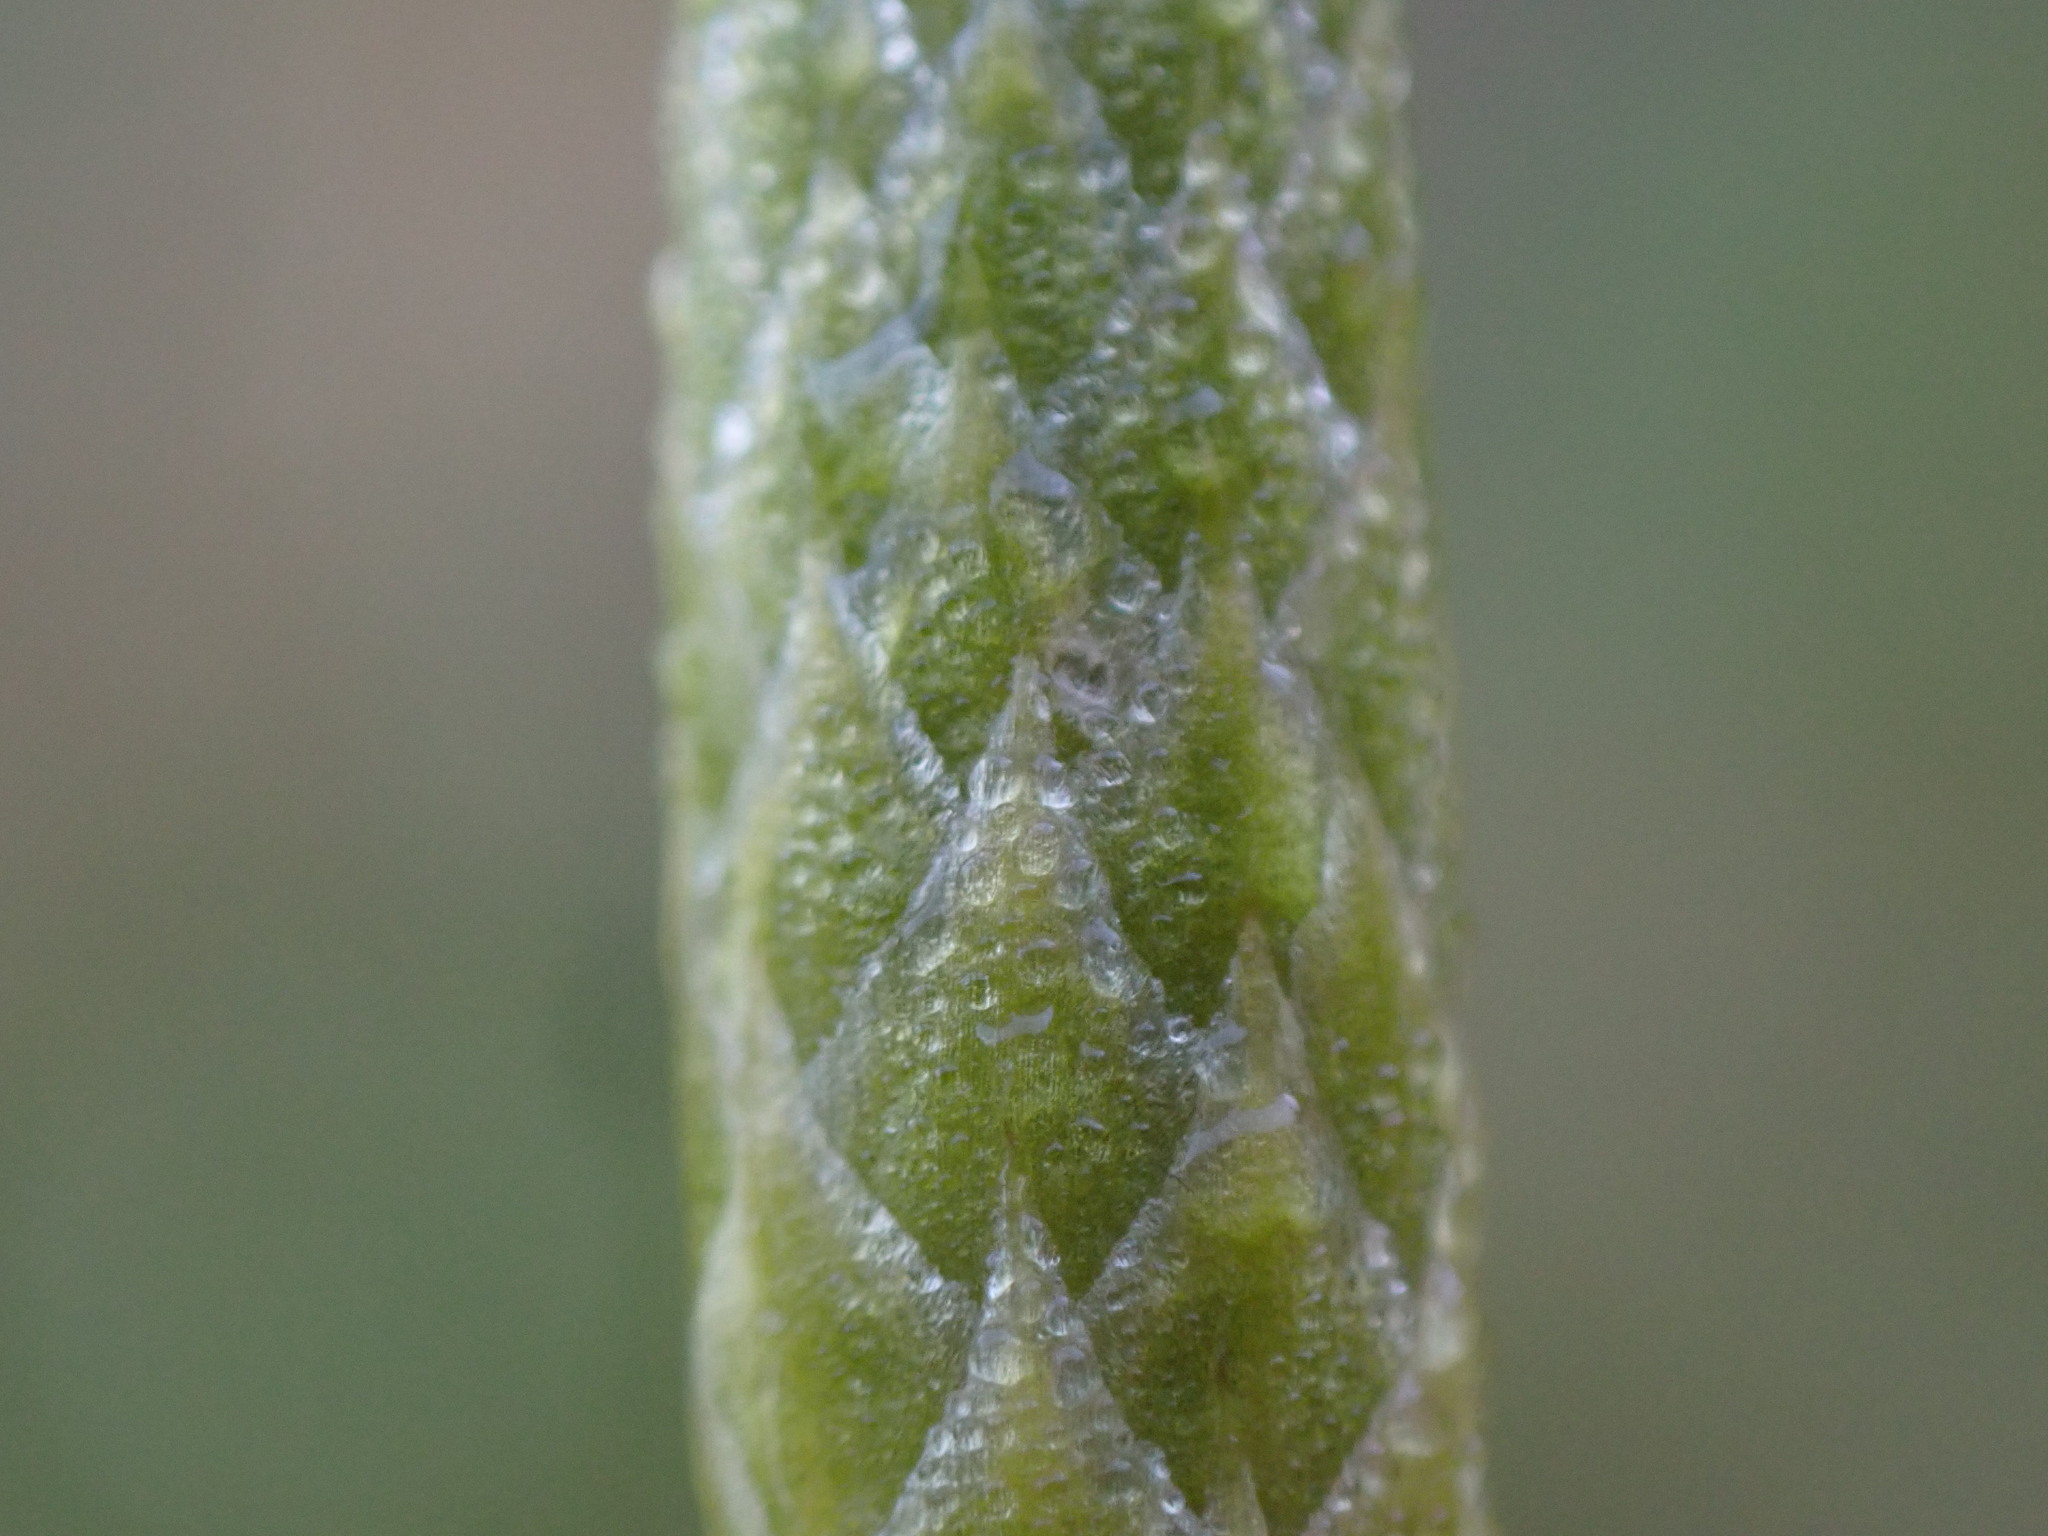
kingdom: Plantae
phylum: Tracheophyta
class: Lycopodiopsida
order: Lycopodiales
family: Lycopodiaceae
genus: Spinulum
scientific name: Spinulum annotinum
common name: Interrupted club-moss
